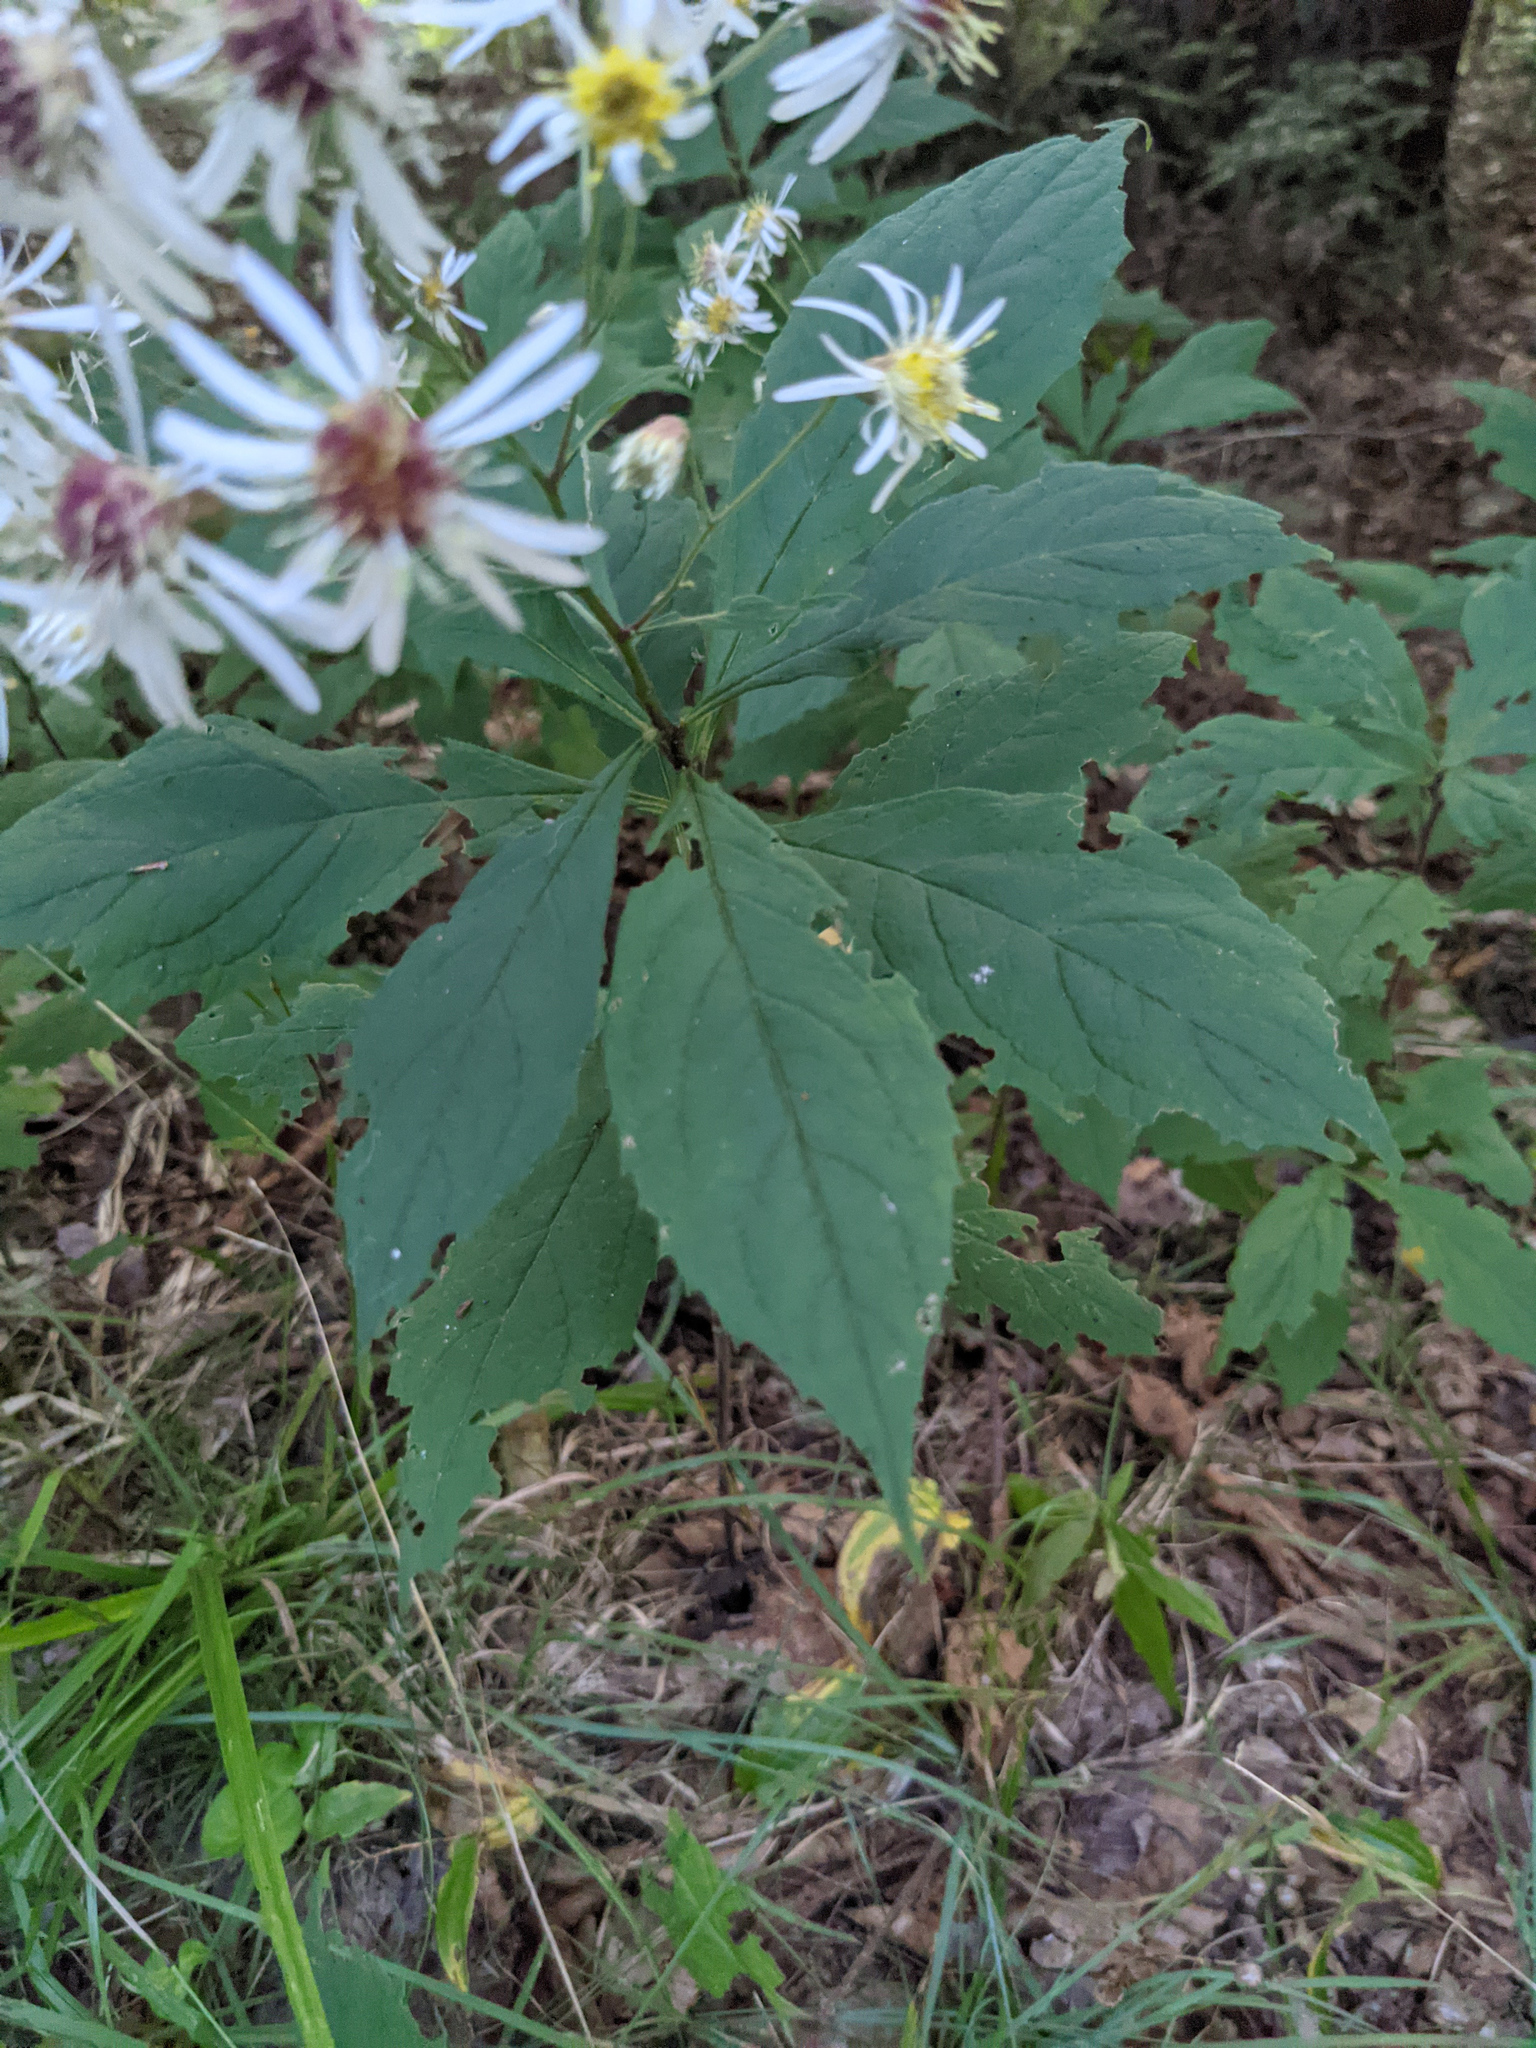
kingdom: Plantae
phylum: Tracheophyta
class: Magnoliopsida
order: Asterales
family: Asteraceae
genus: Oclemena
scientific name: Oclemena acuminata
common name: Mountain aster
